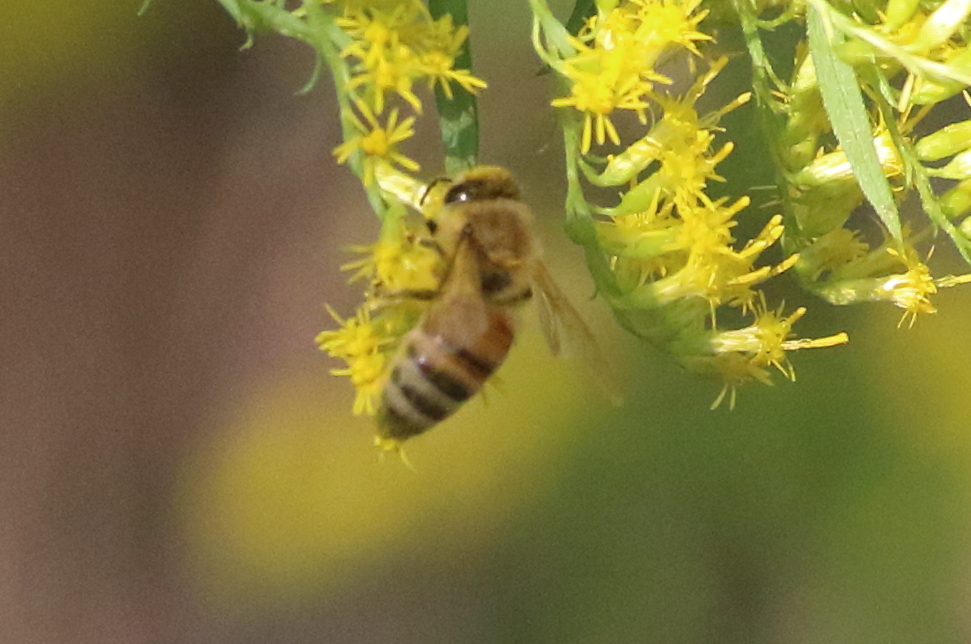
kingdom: Animalia
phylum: Arthropoda
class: Insecta
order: Hymenoptera
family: Apidae
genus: Apis
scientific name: Apis mellifera
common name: Honey bee
